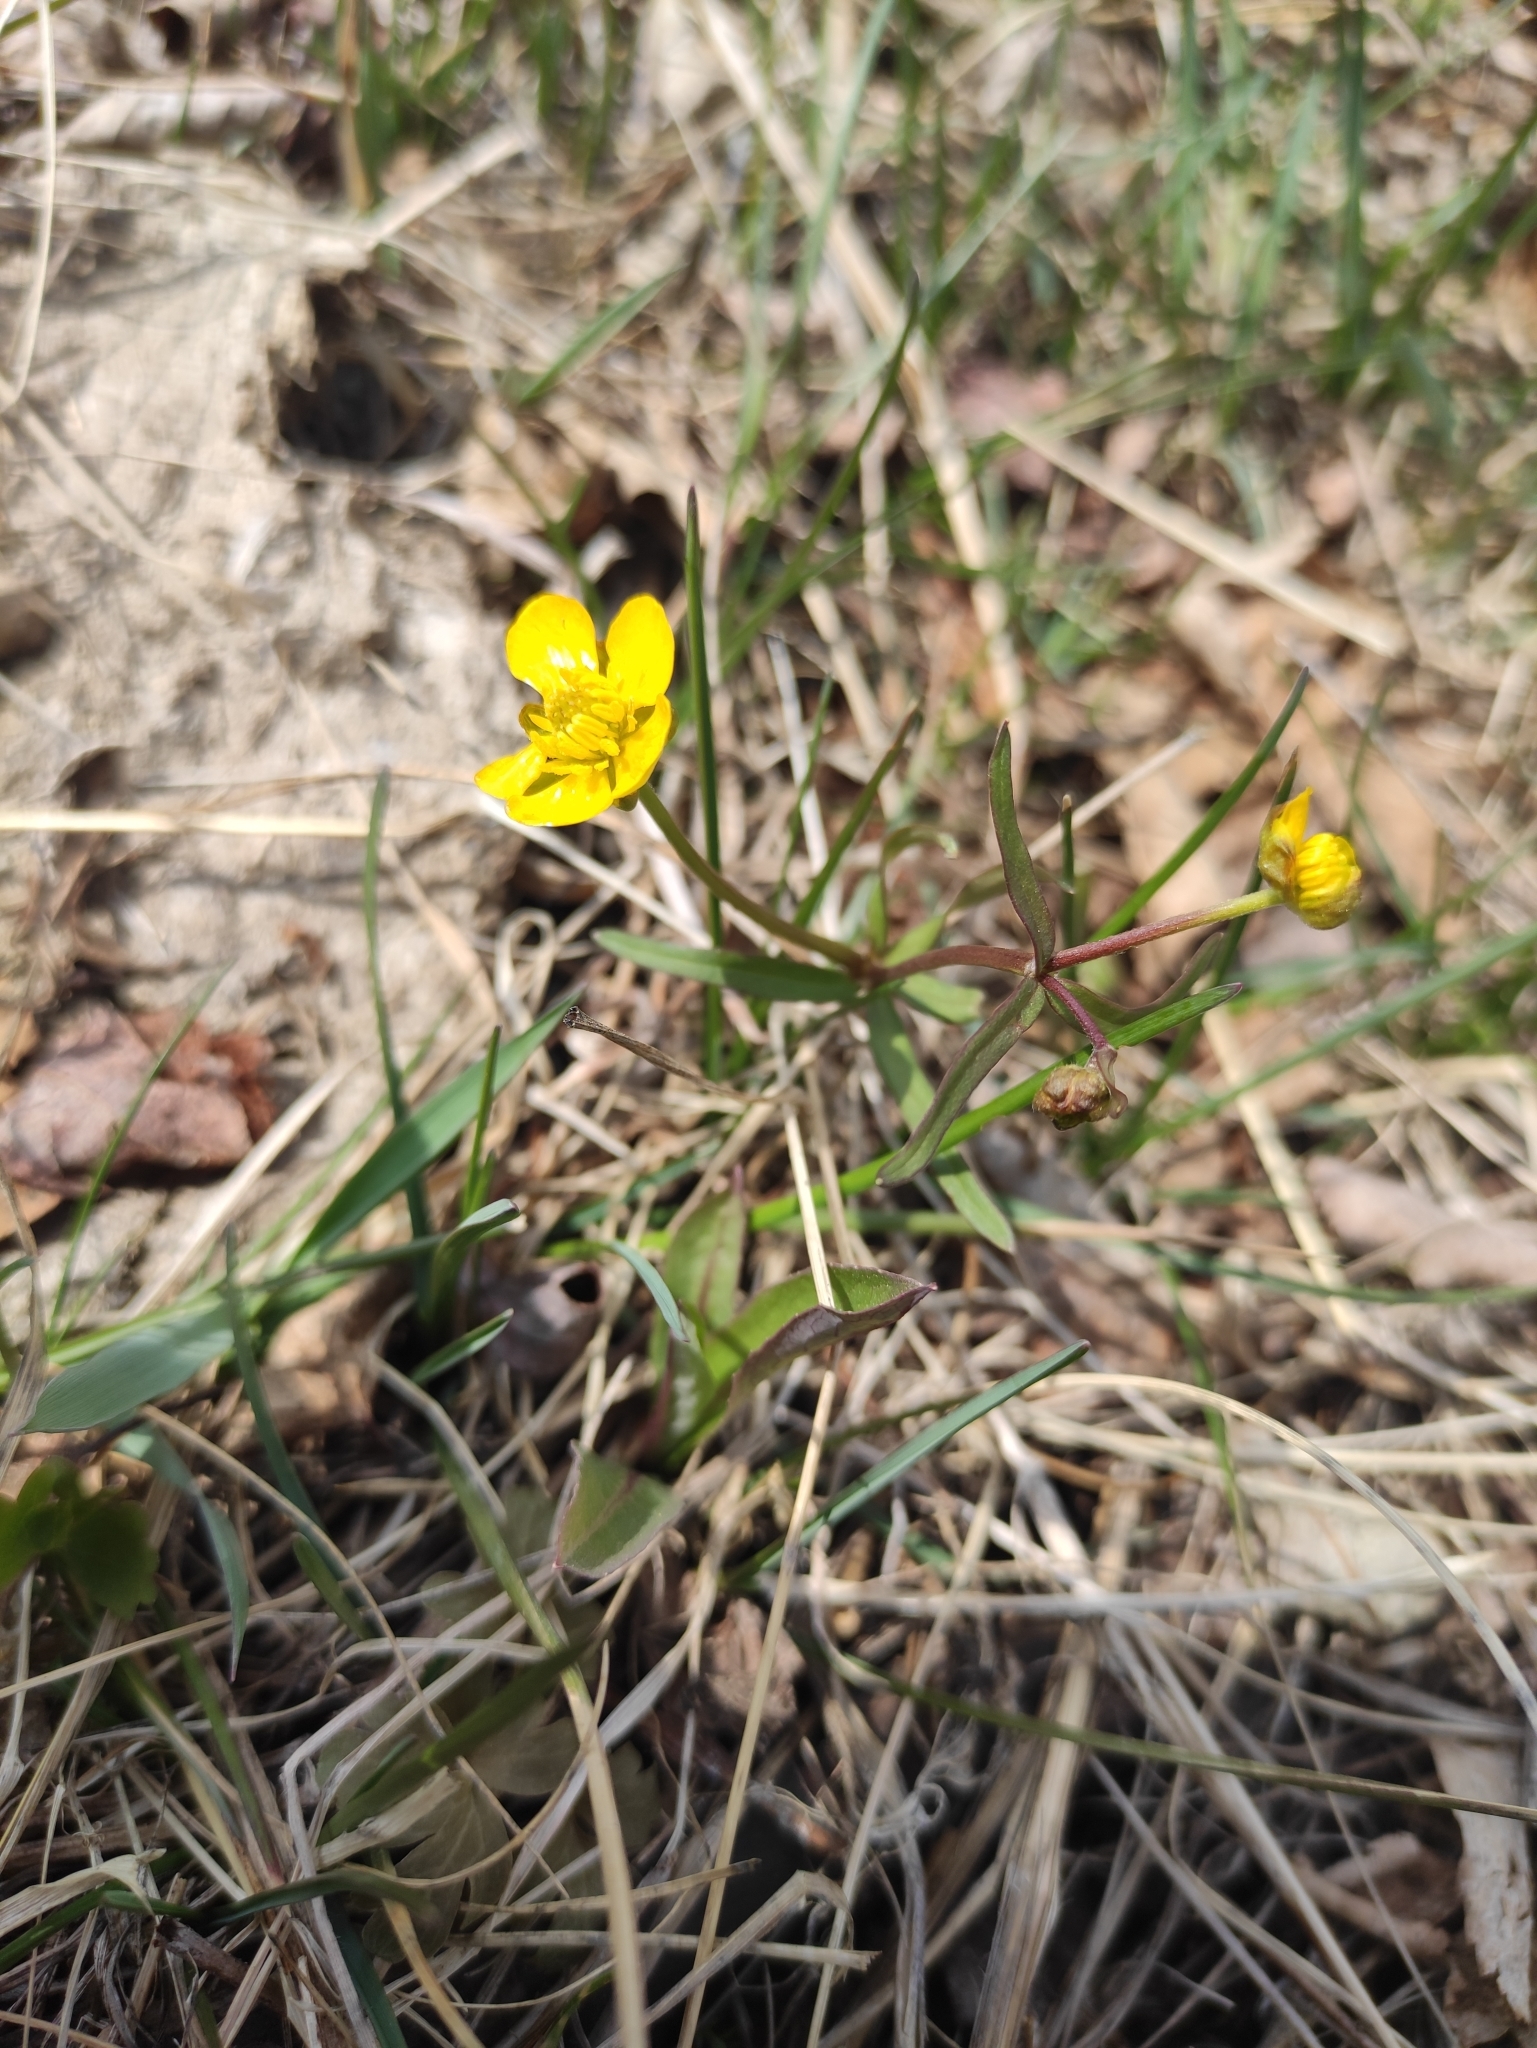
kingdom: Plantae
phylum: Tracheophyta
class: Magnoliopsida
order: Ranunculales
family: Ranunculaceae
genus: Ranunculus
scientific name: Ranunculus monophyllus
